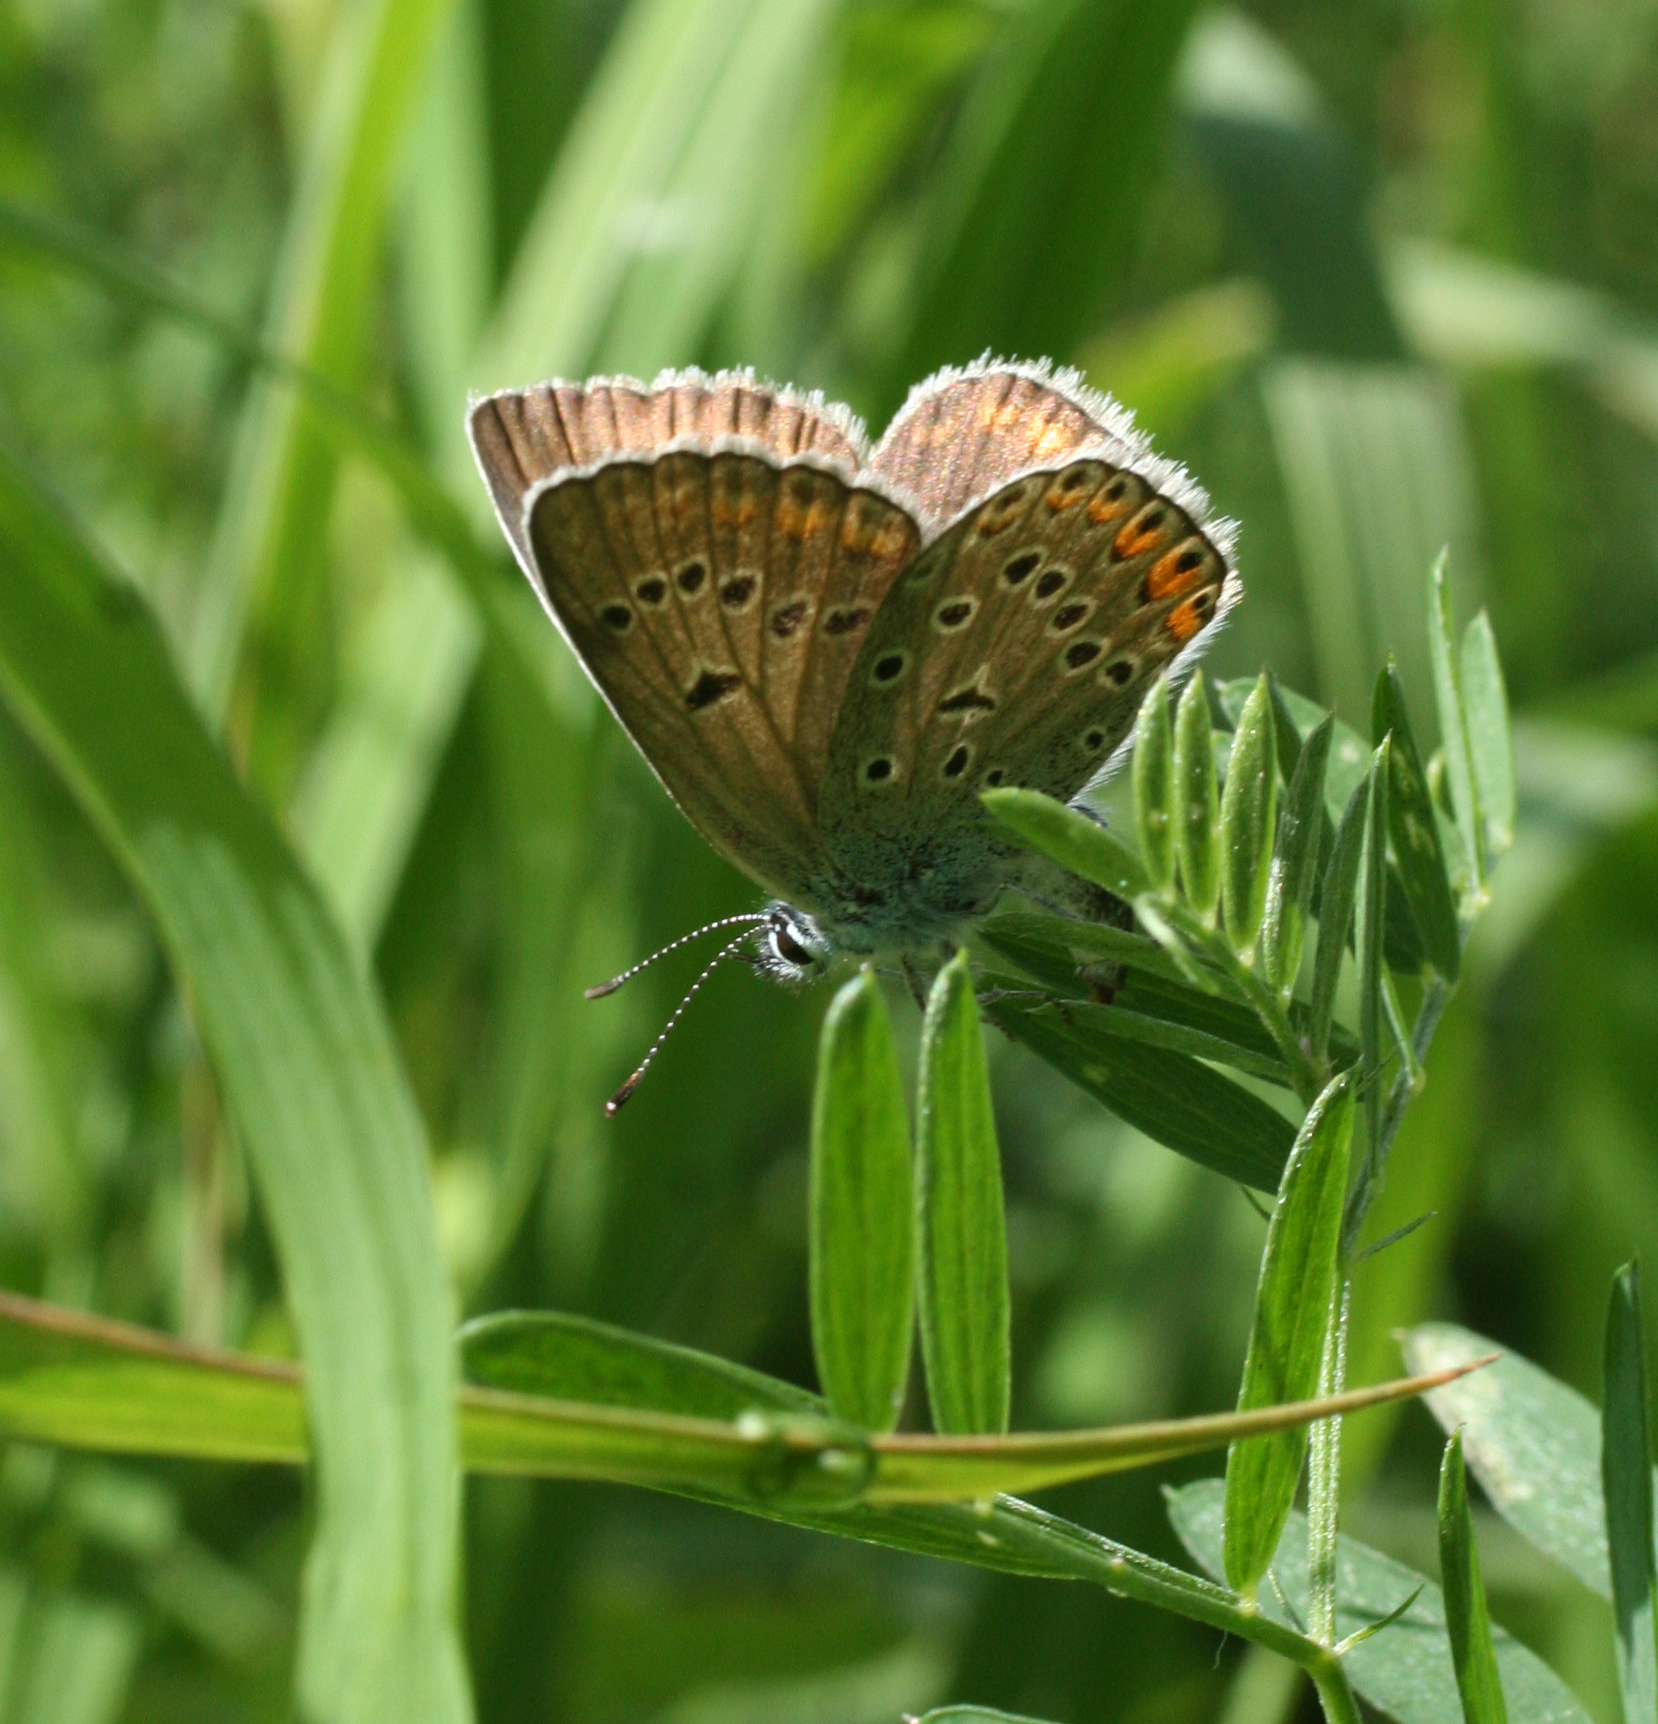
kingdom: Animalia
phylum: Arthropoda
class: Insecta
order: Lepidoptera
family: Lycaenidae
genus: Plebejus
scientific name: Plebejus amanda
